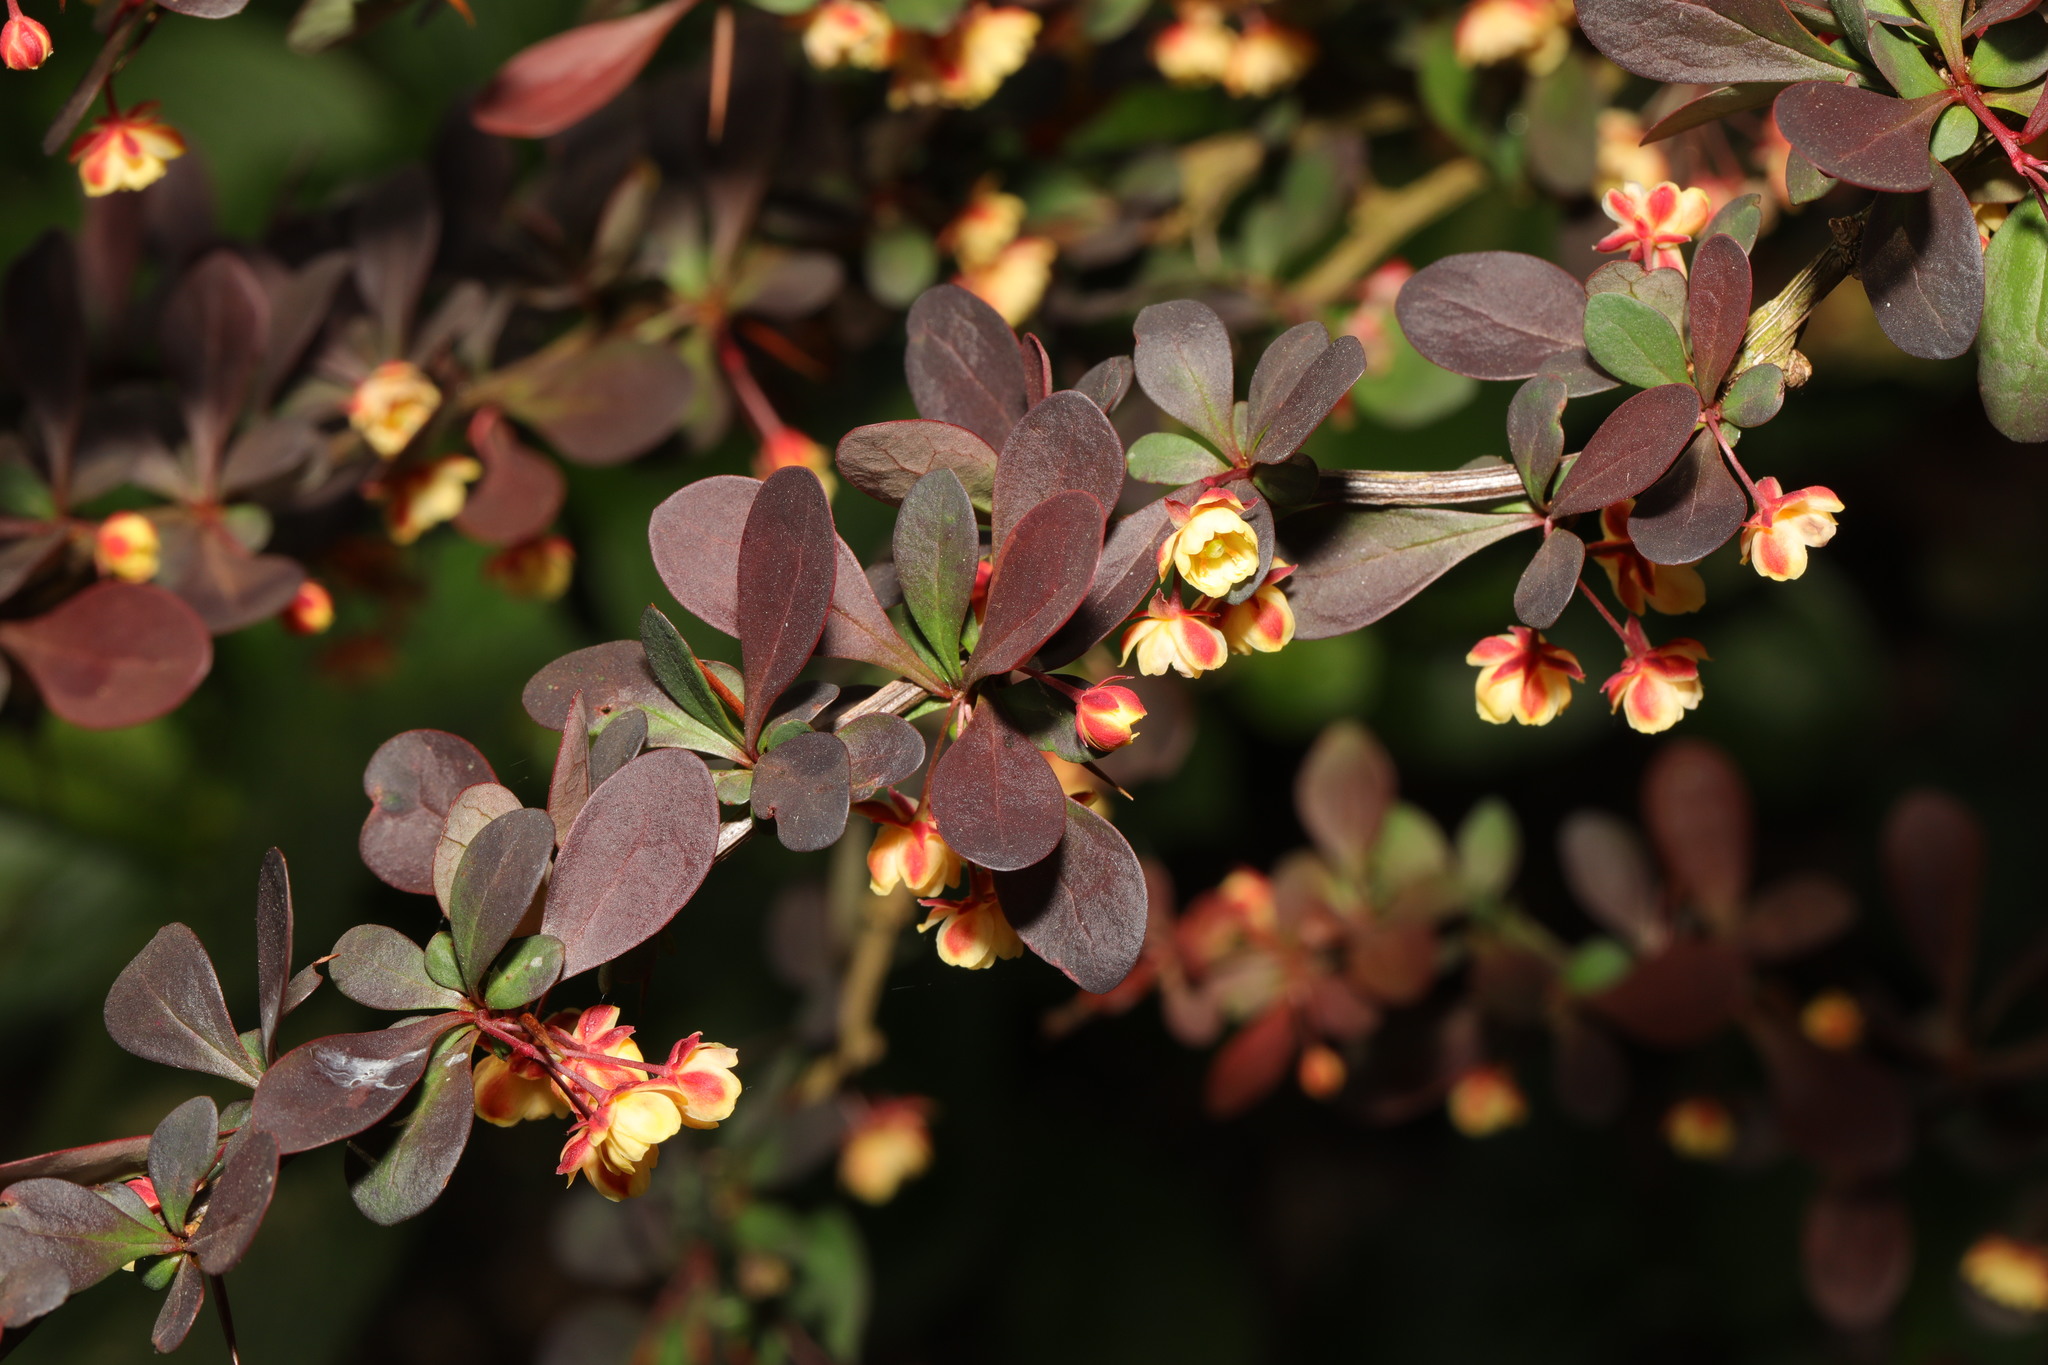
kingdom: Plantae
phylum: Tracheophyta
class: Magnoliopsida
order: Ranunculales
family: Berberidaceae
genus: Berberis
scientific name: Berberis thunbergii
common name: Japanese barberry
